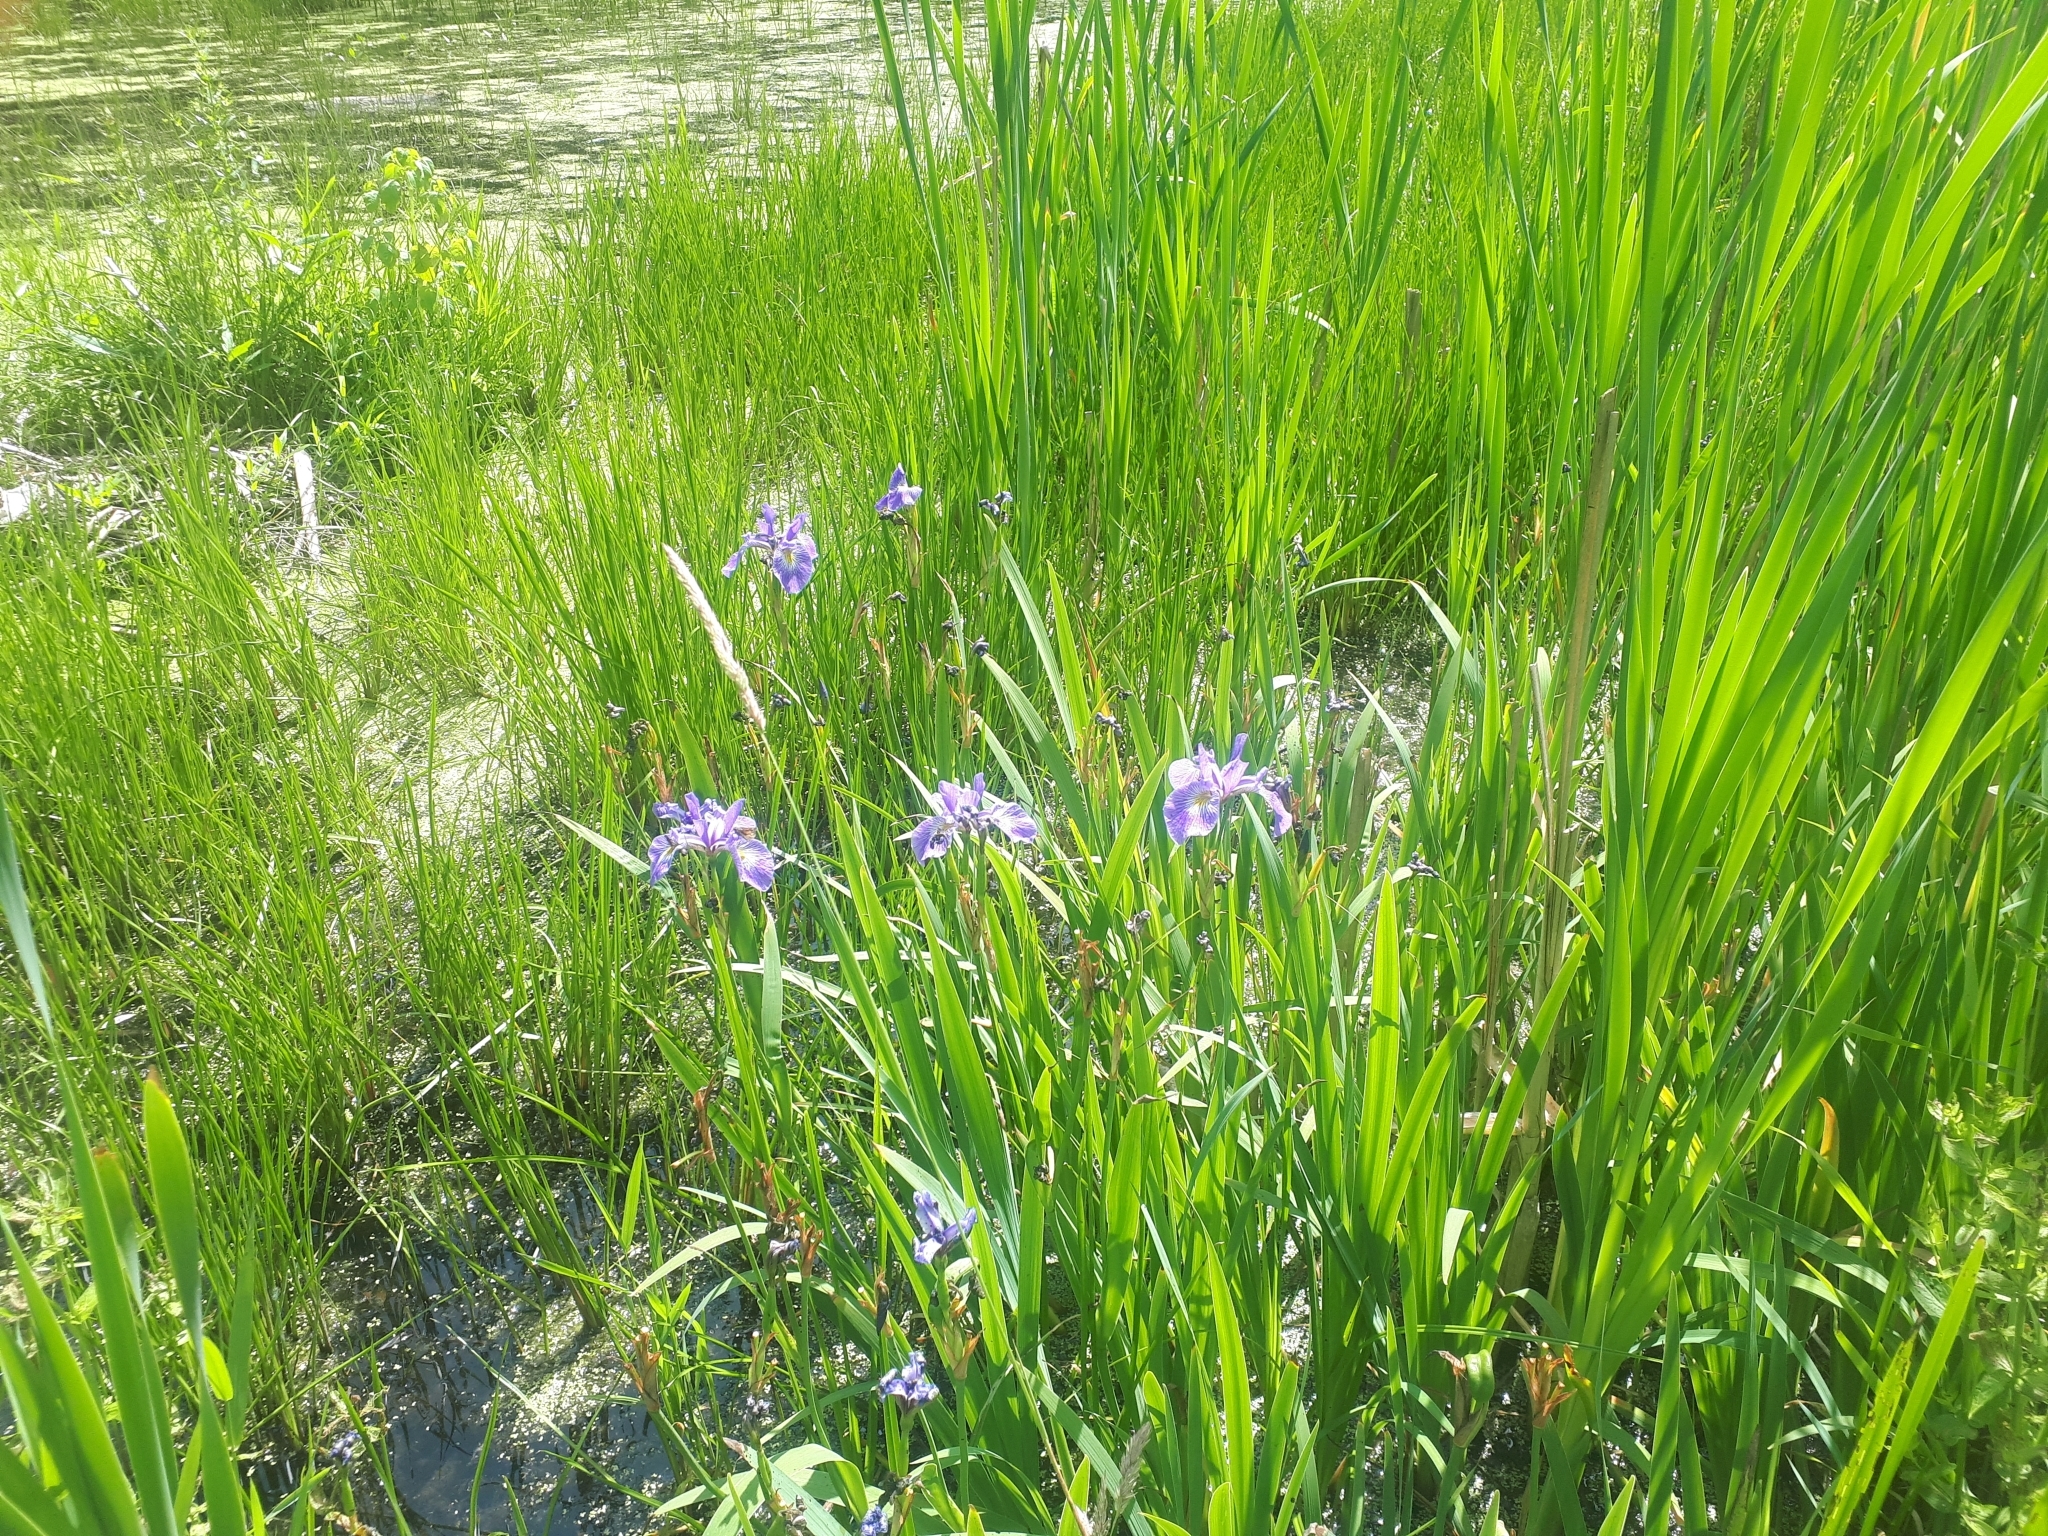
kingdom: Plantae
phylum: Tracheophyta
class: Liliopsida
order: Asparagales
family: Iridaceae
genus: Iris
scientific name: Iris versicolor
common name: Purple iris
